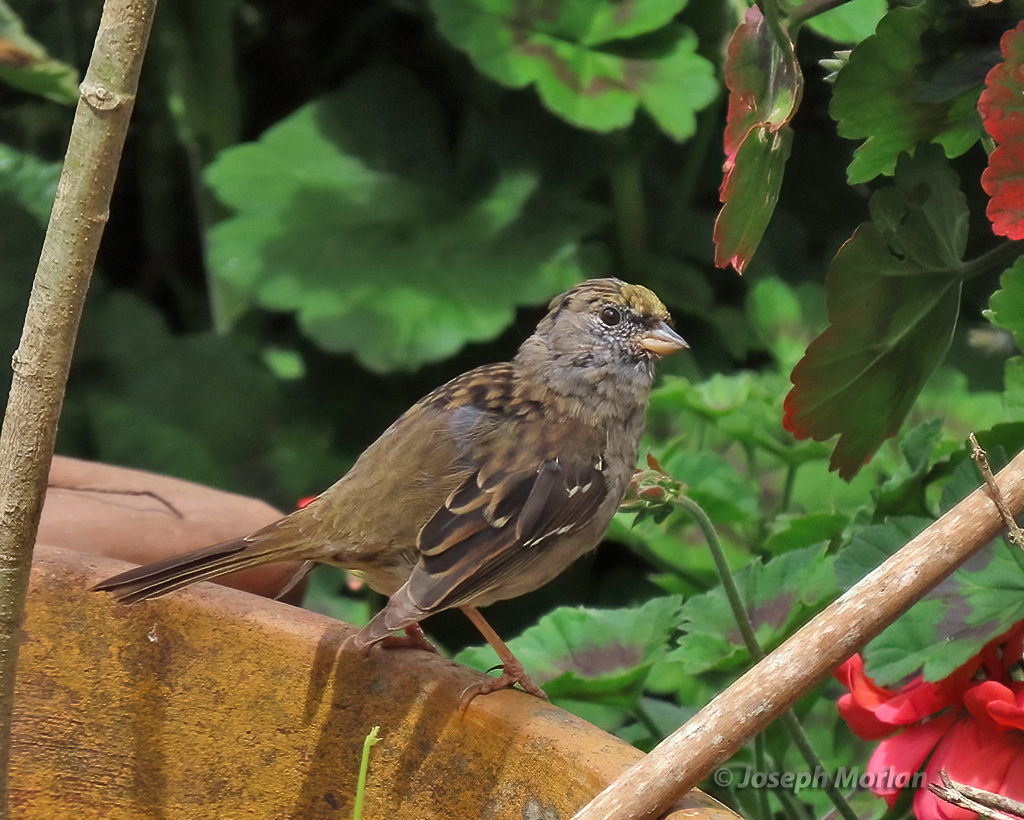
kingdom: Animalia
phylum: Chordata
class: Aves
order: Passeriformes
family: Passerellidae
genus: Zonotrichia
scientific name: Zonotrichia atricapilla
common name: Golden-crowned sparrow
